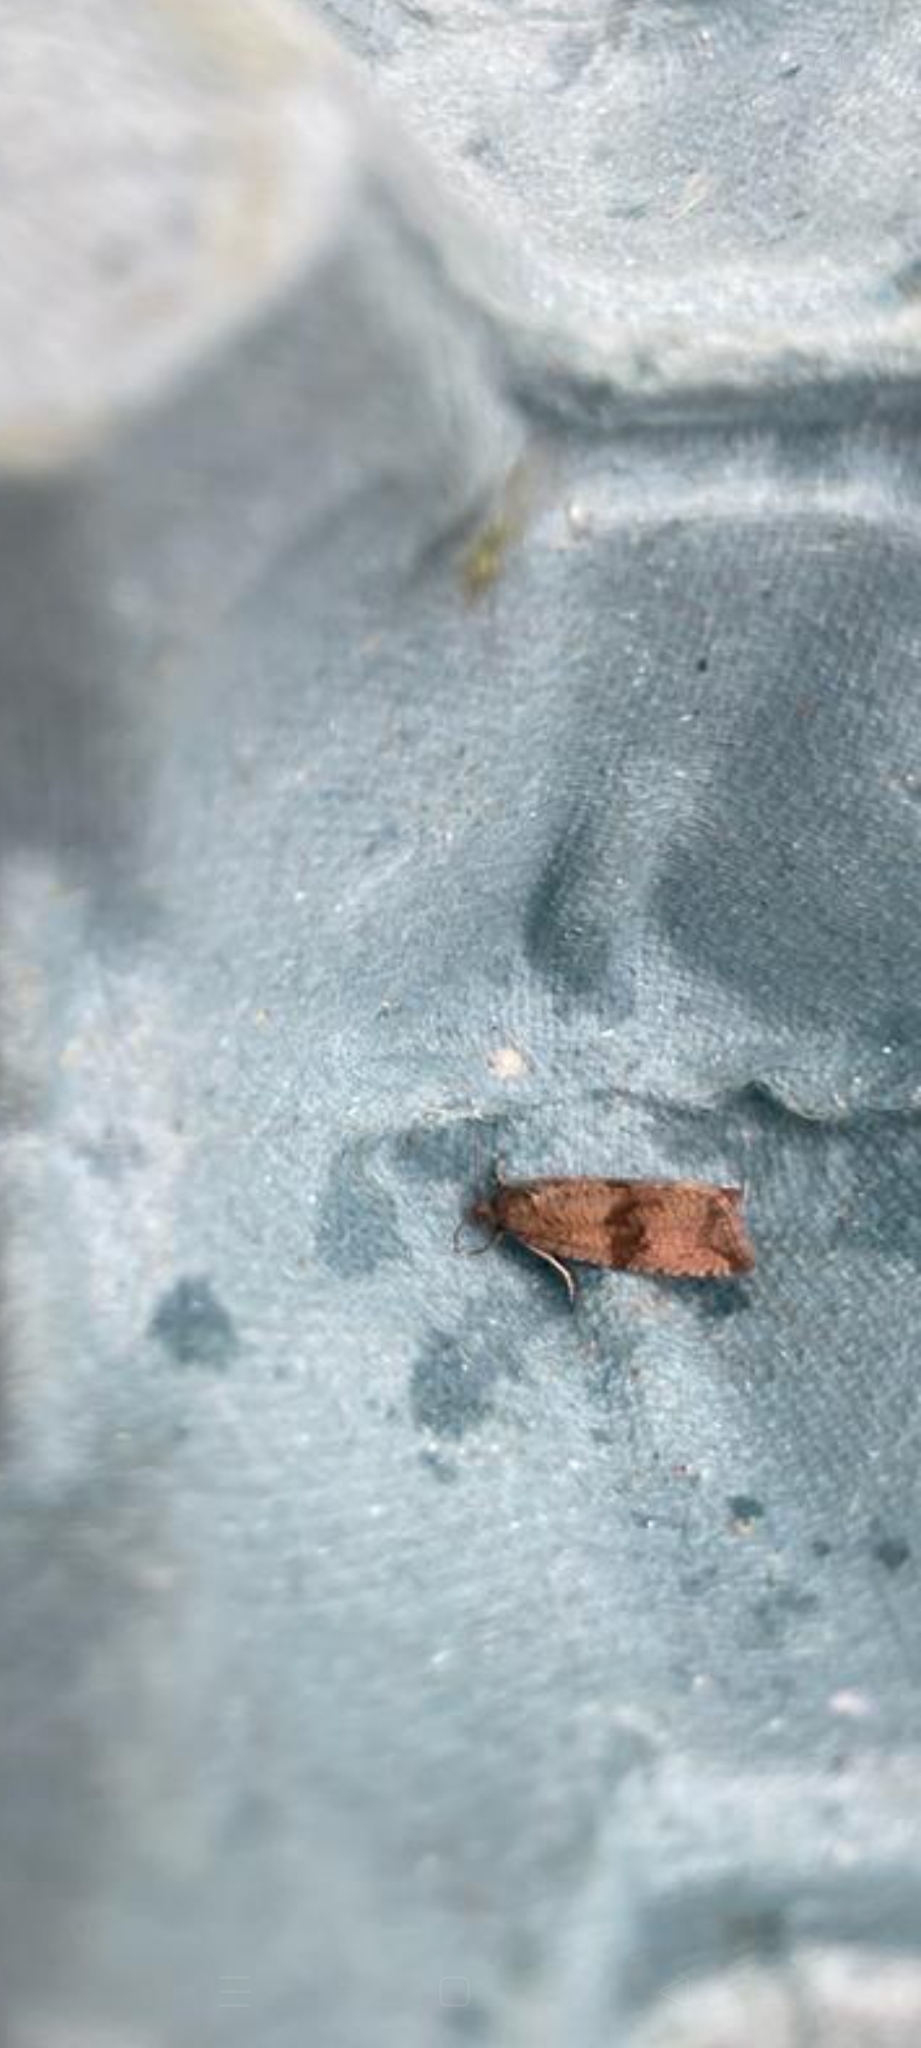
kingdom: Animalia
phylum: Arthropoda
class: Insecta
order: Lepidoptera
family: Tortricidae
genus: Celypha
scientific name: Celypha striana
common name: Barred marble
